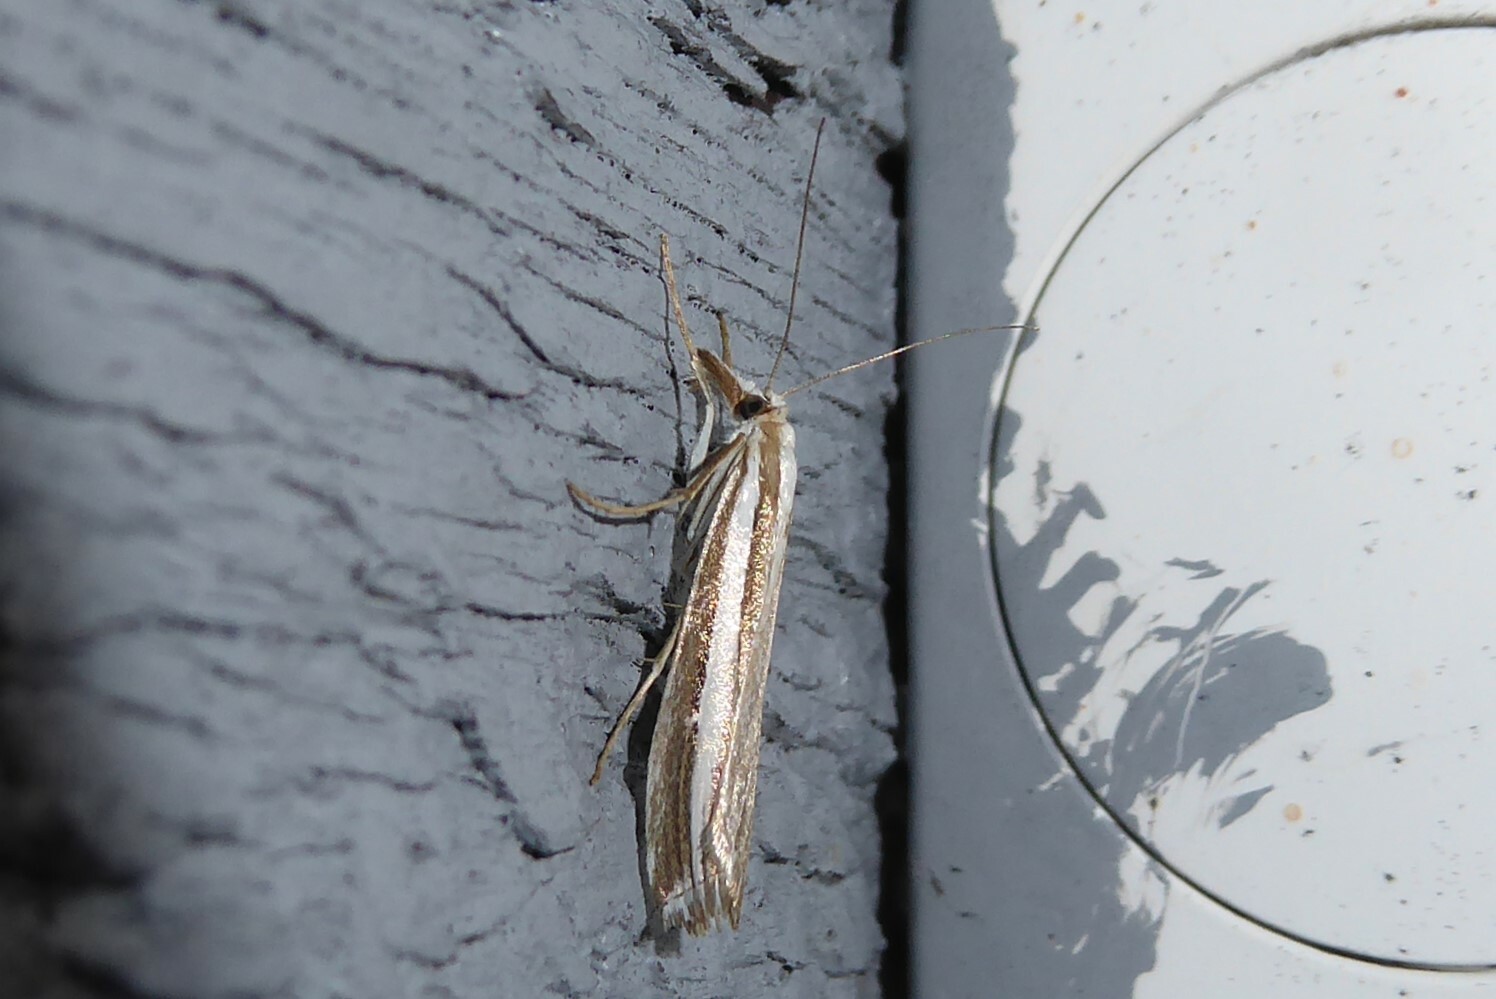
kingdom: Animalia
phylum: Arthropoda
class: Insecta
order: Lepidoptera
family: Crambidae
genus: Orocrambus
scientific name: Orocrambus vittellus
